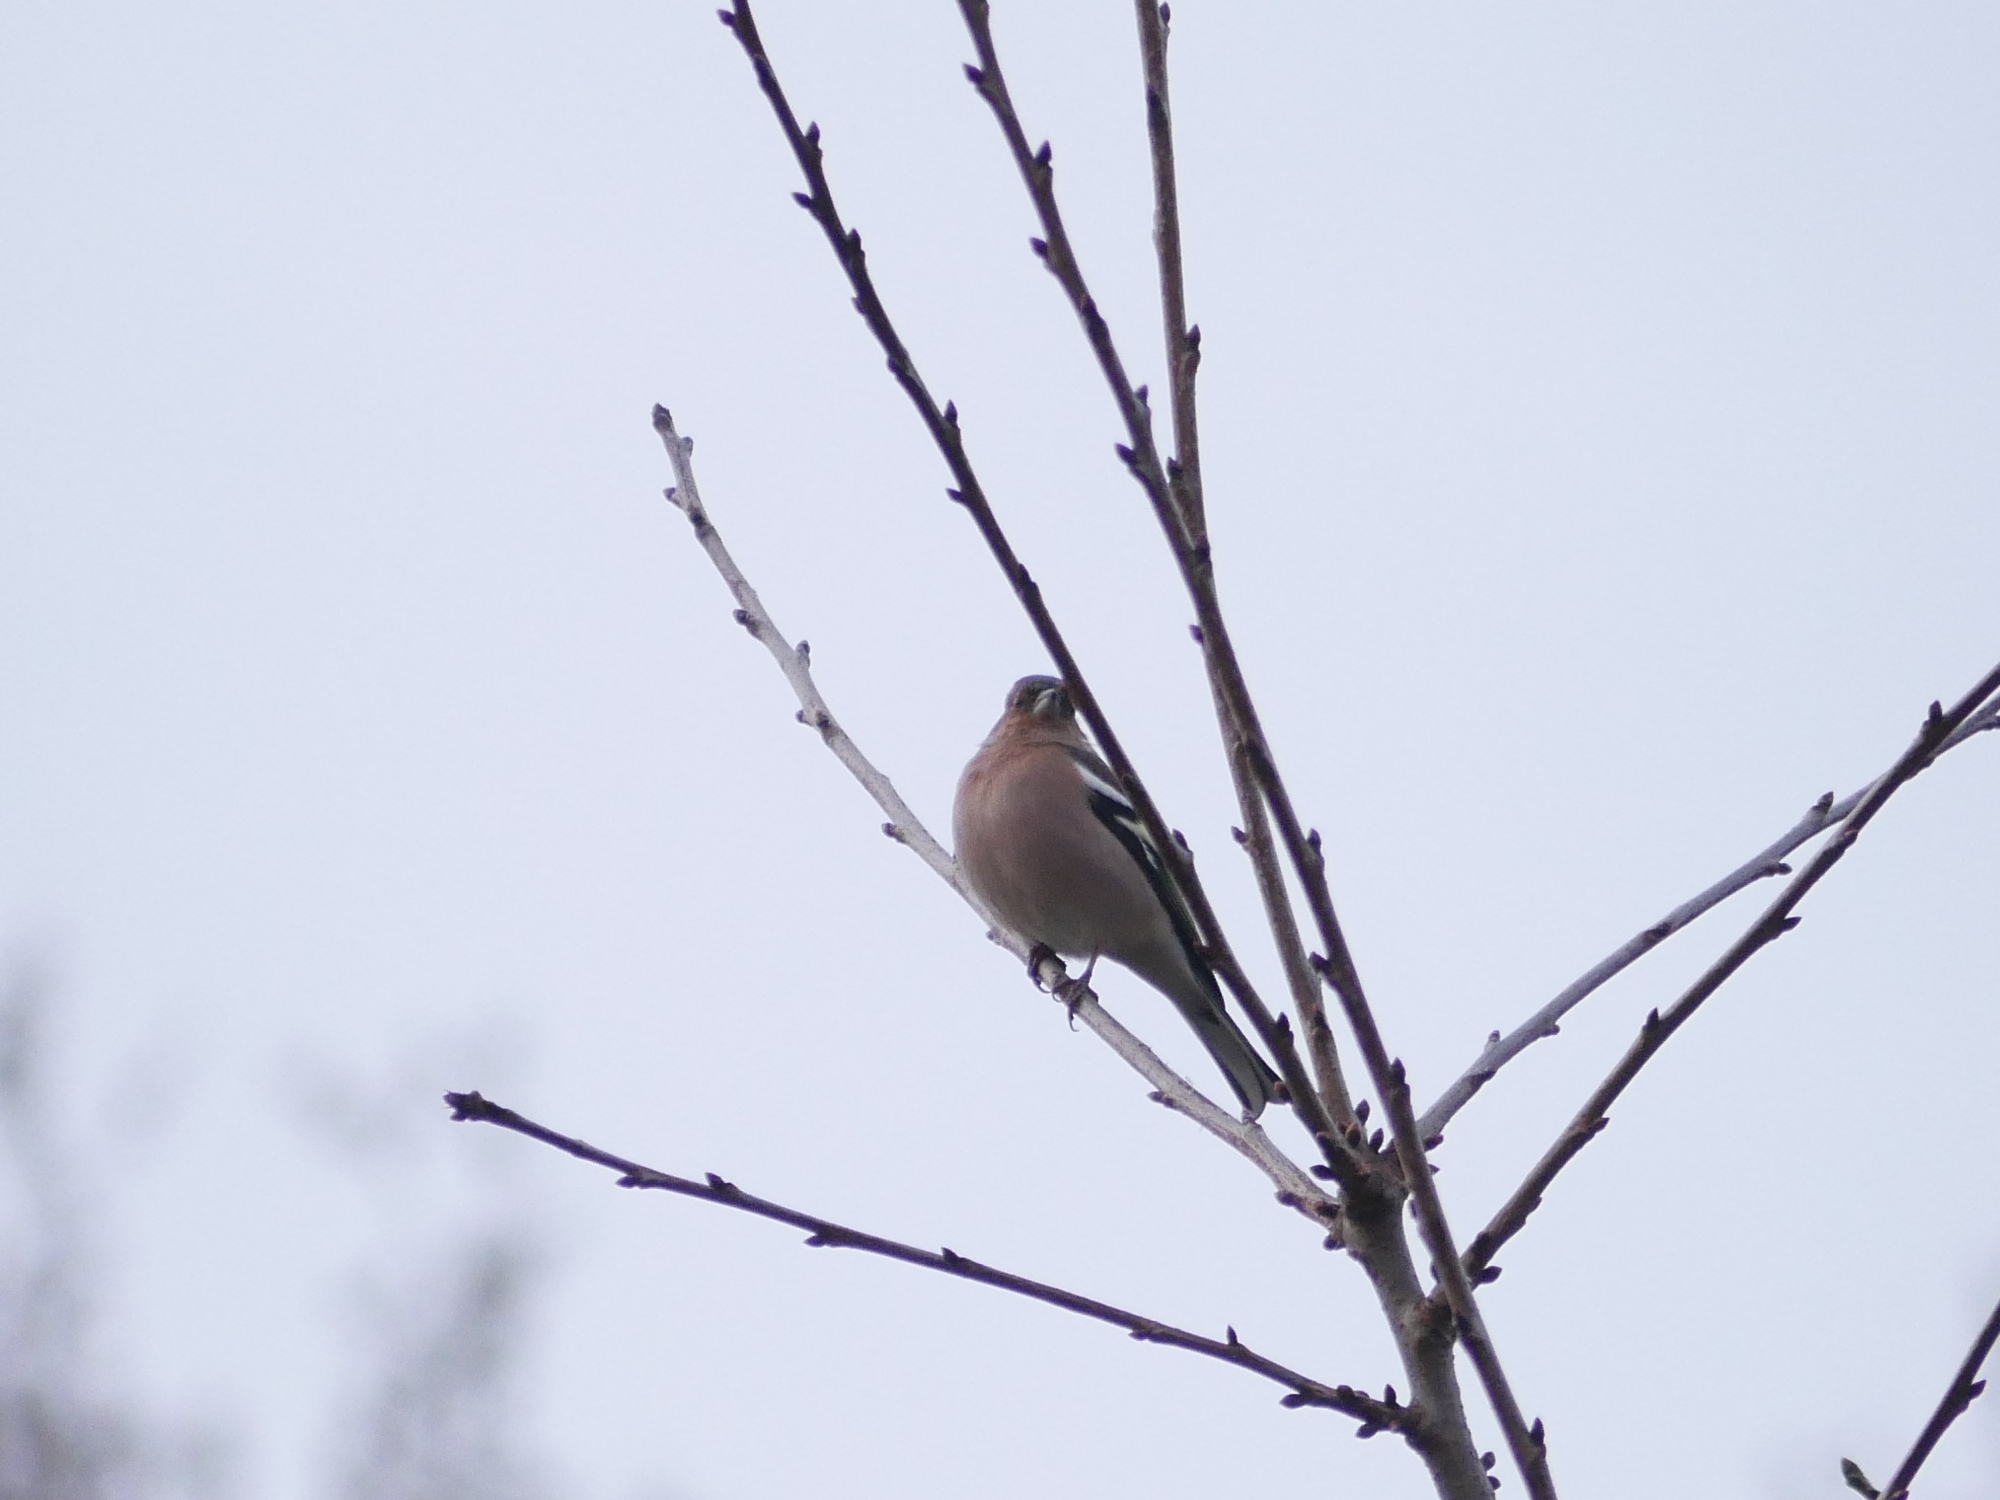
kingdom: Animalia
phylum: Chordata
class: Aves
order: Passeriformes
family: Fringillidae
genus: Fringilla
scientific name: Fringilla coelebs
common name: Common chaffinch
